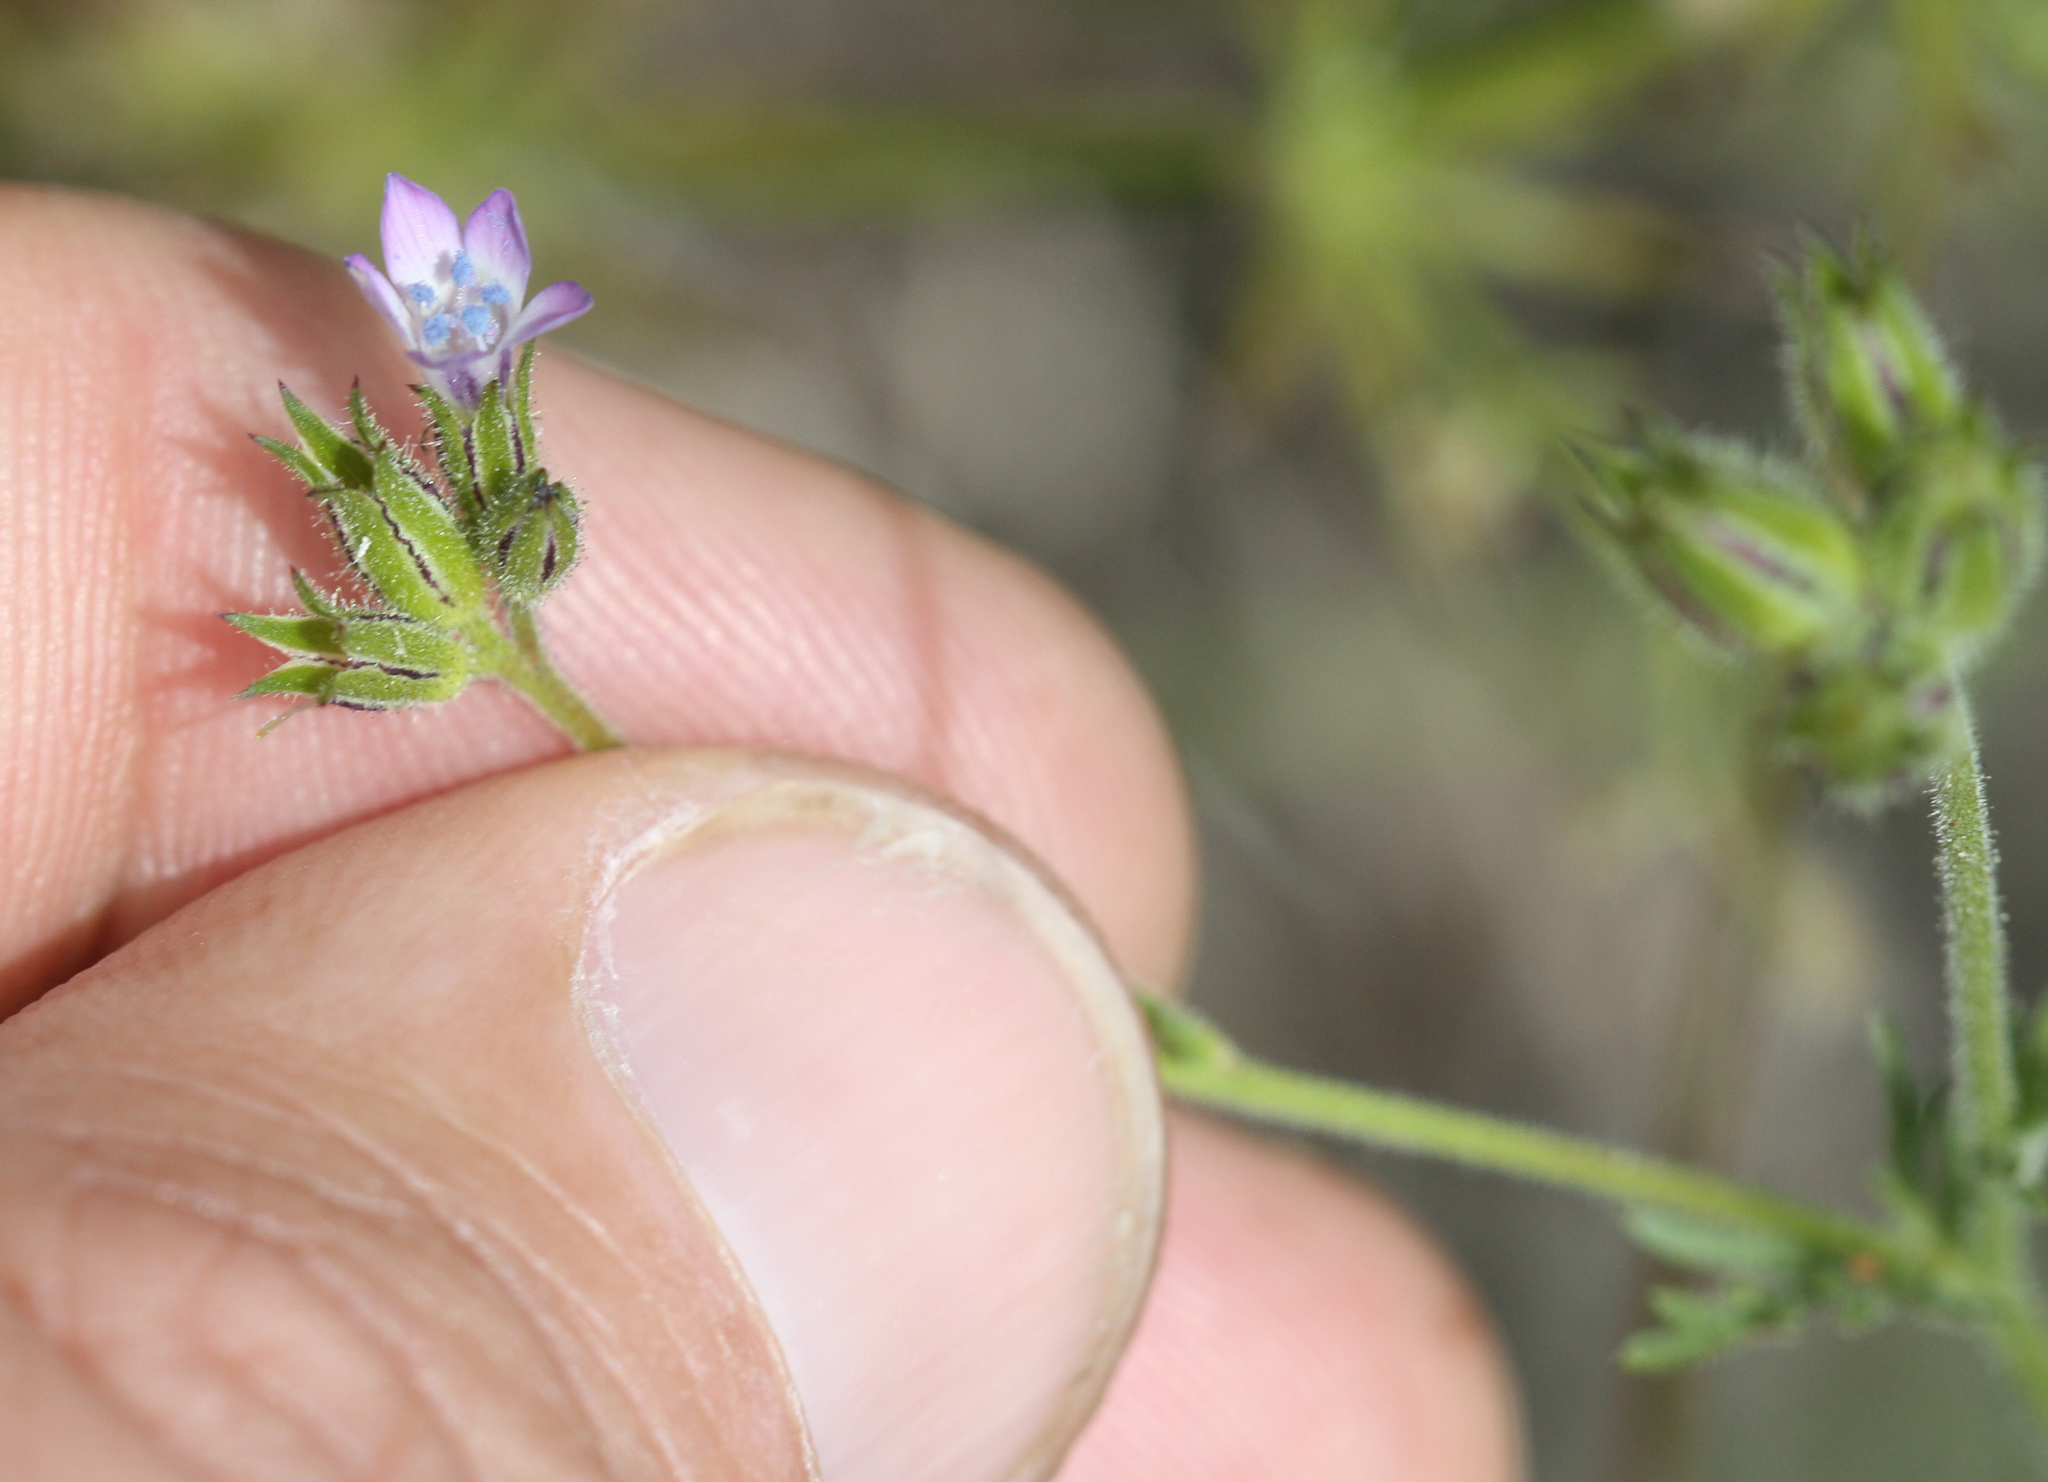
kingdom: Plantae
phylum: Tracheophyta
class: Magnoliopsida
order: Ericales
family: Polemoniaceae
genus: Gilia
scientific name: Gilia clivorum
